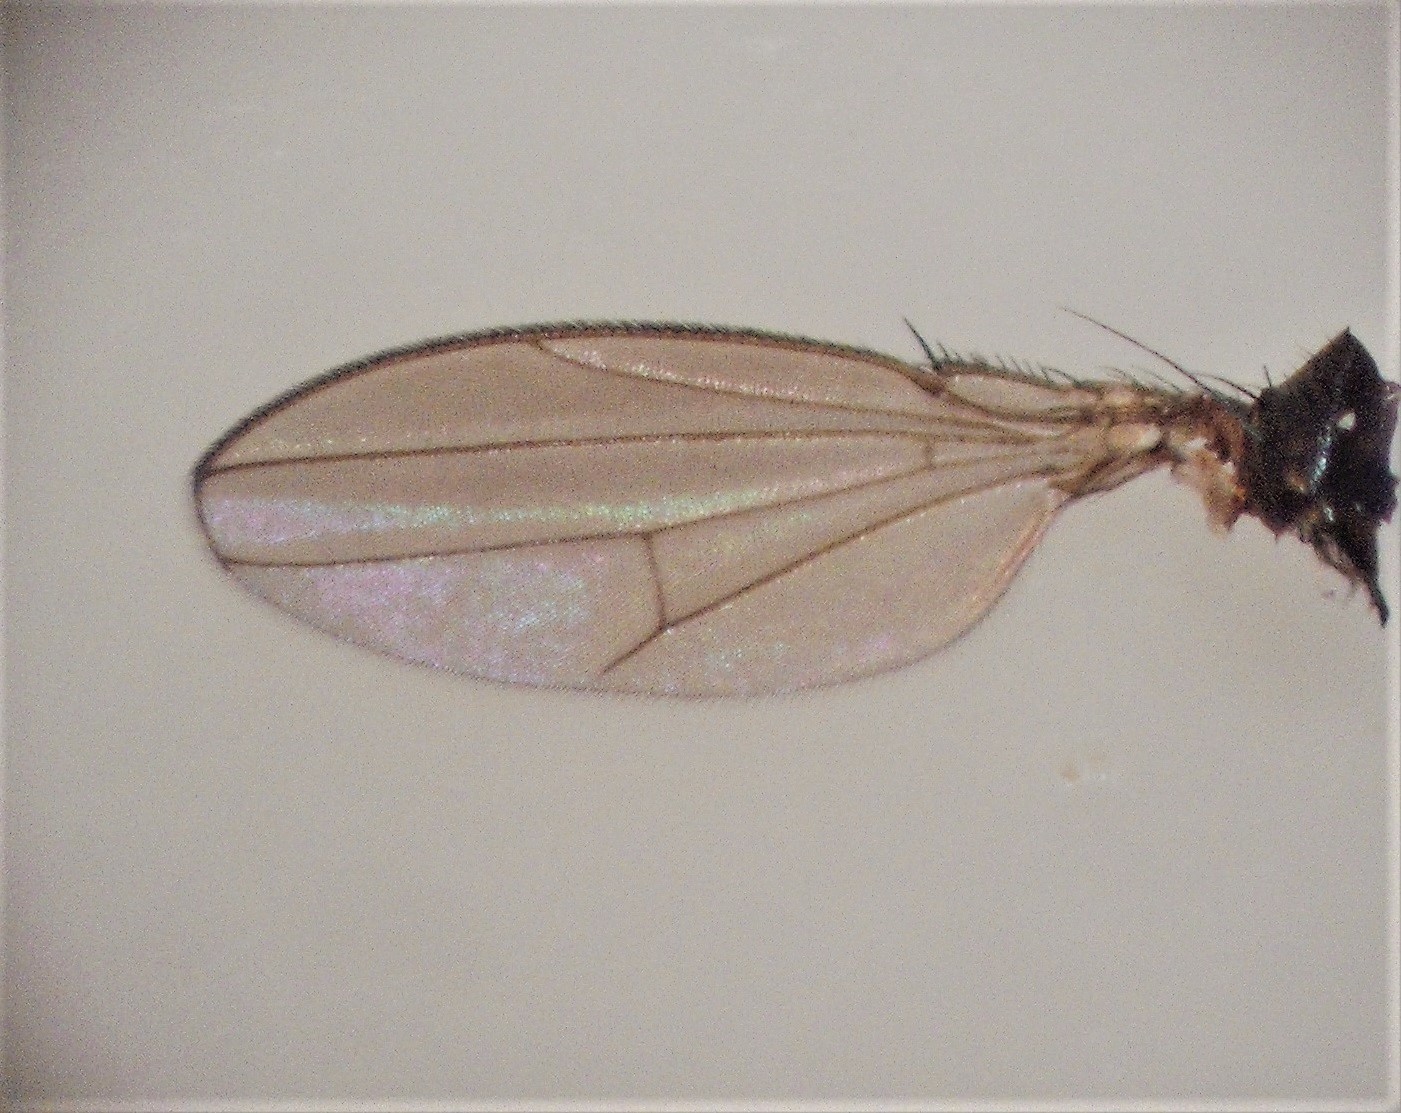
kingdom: Animalia
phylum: Arthropoda
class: Insecta
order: Diptera
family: Ephydridae
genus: Clasiopella
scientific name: Clasiopella austra
